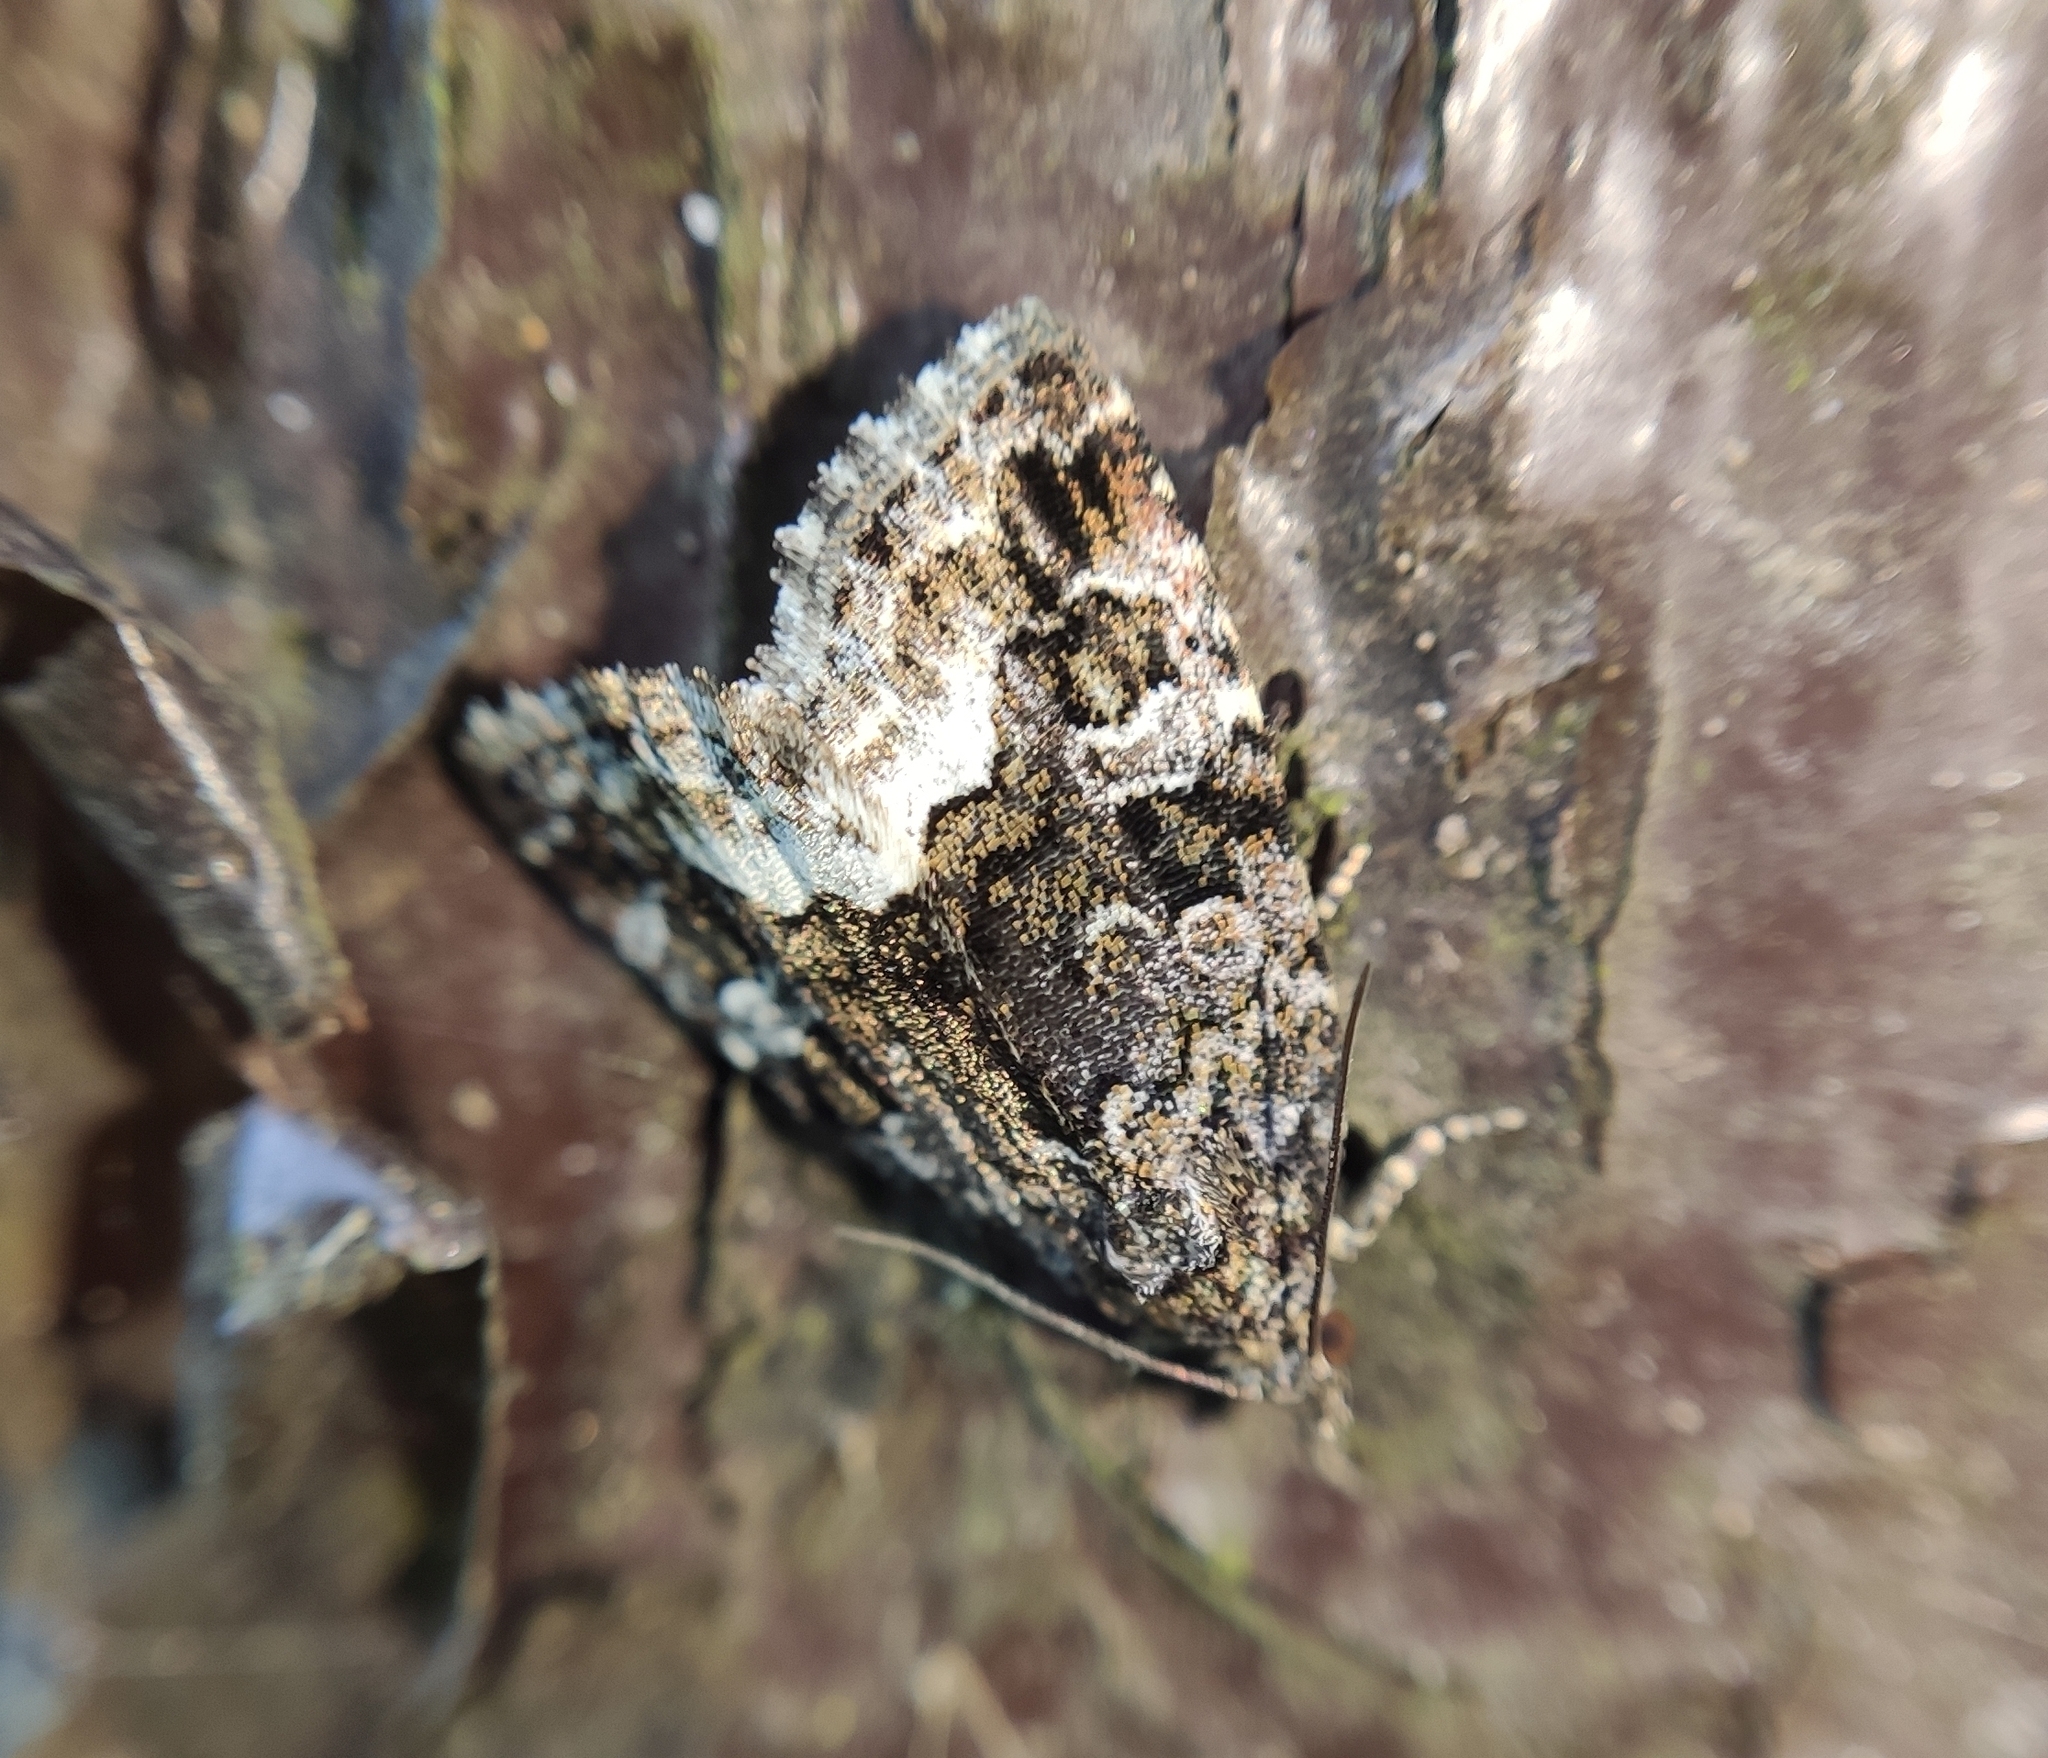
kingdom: Animalia
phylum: Arthropoda
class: Insecta
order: Lepidoptera
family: Noctuidae
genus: Deltote
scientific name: Deltote pygarga
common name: Marbled white spot
